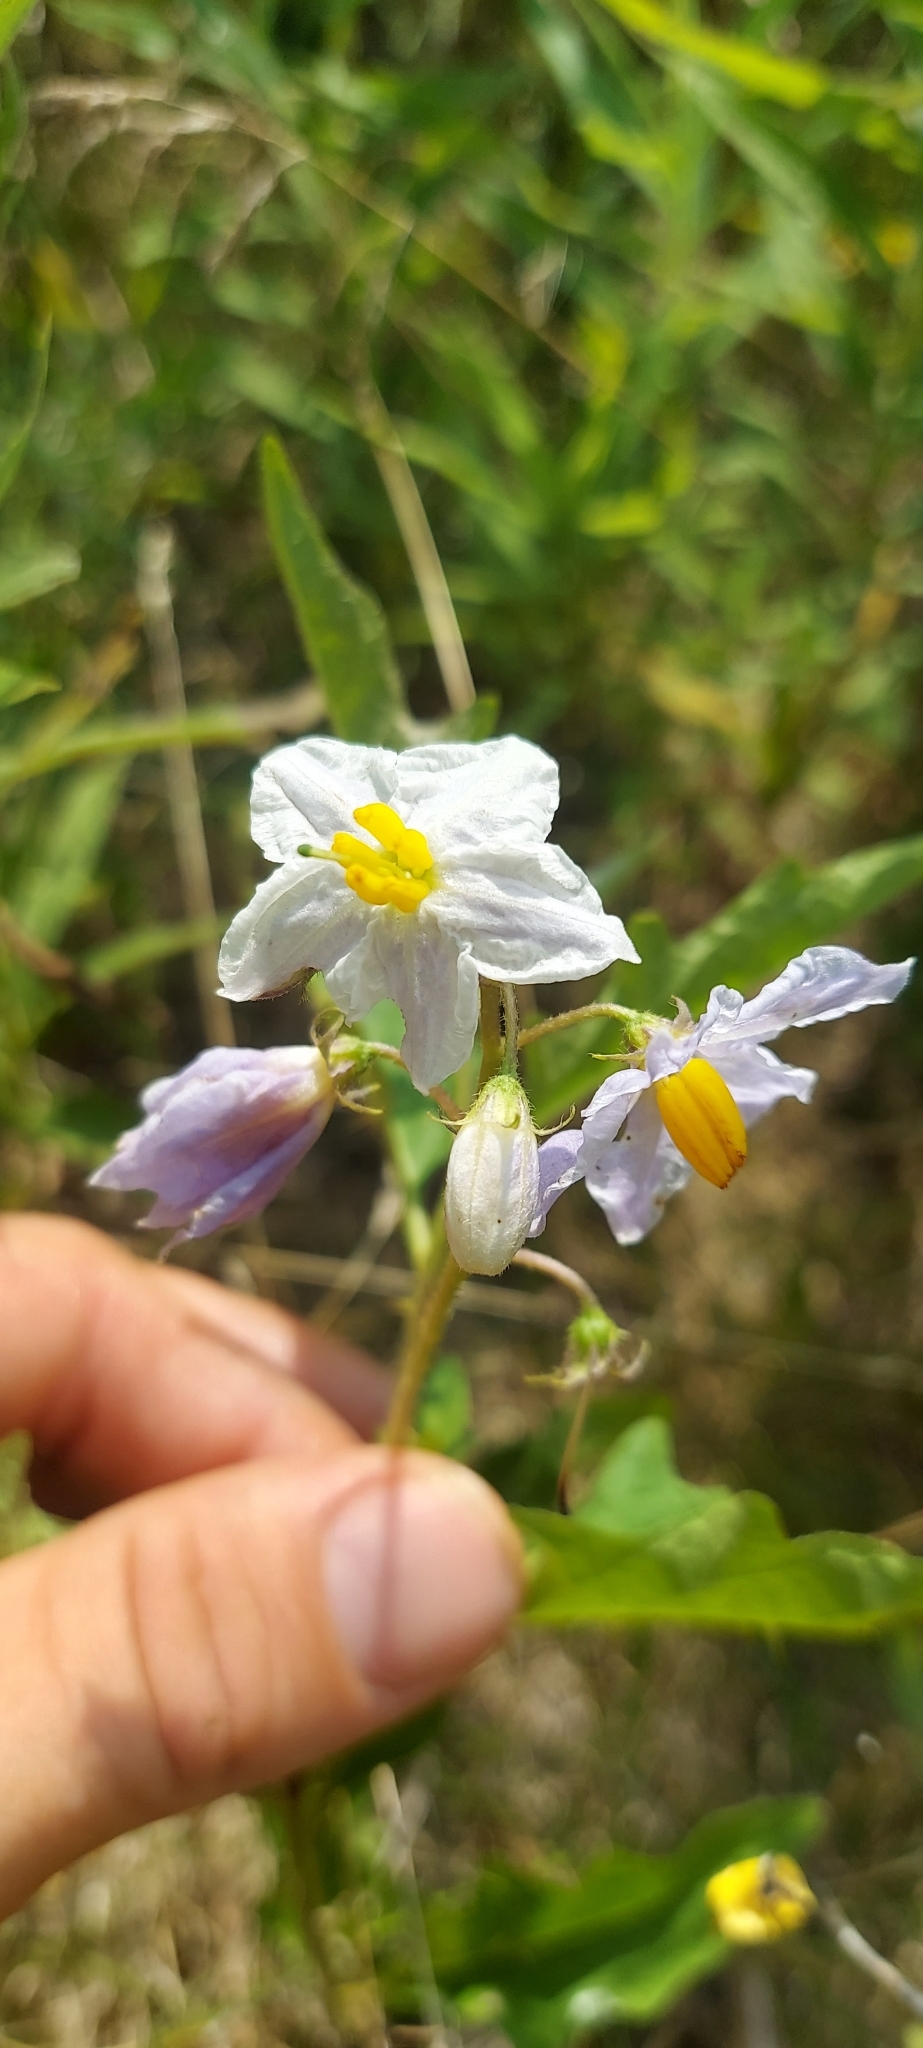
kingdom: Plantae
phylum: Tracheophyta
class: Magnoliopsida
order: Solanales
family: Solanaceae
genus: Solanum
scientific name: Solanum carolinense
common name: Horse-nettle
